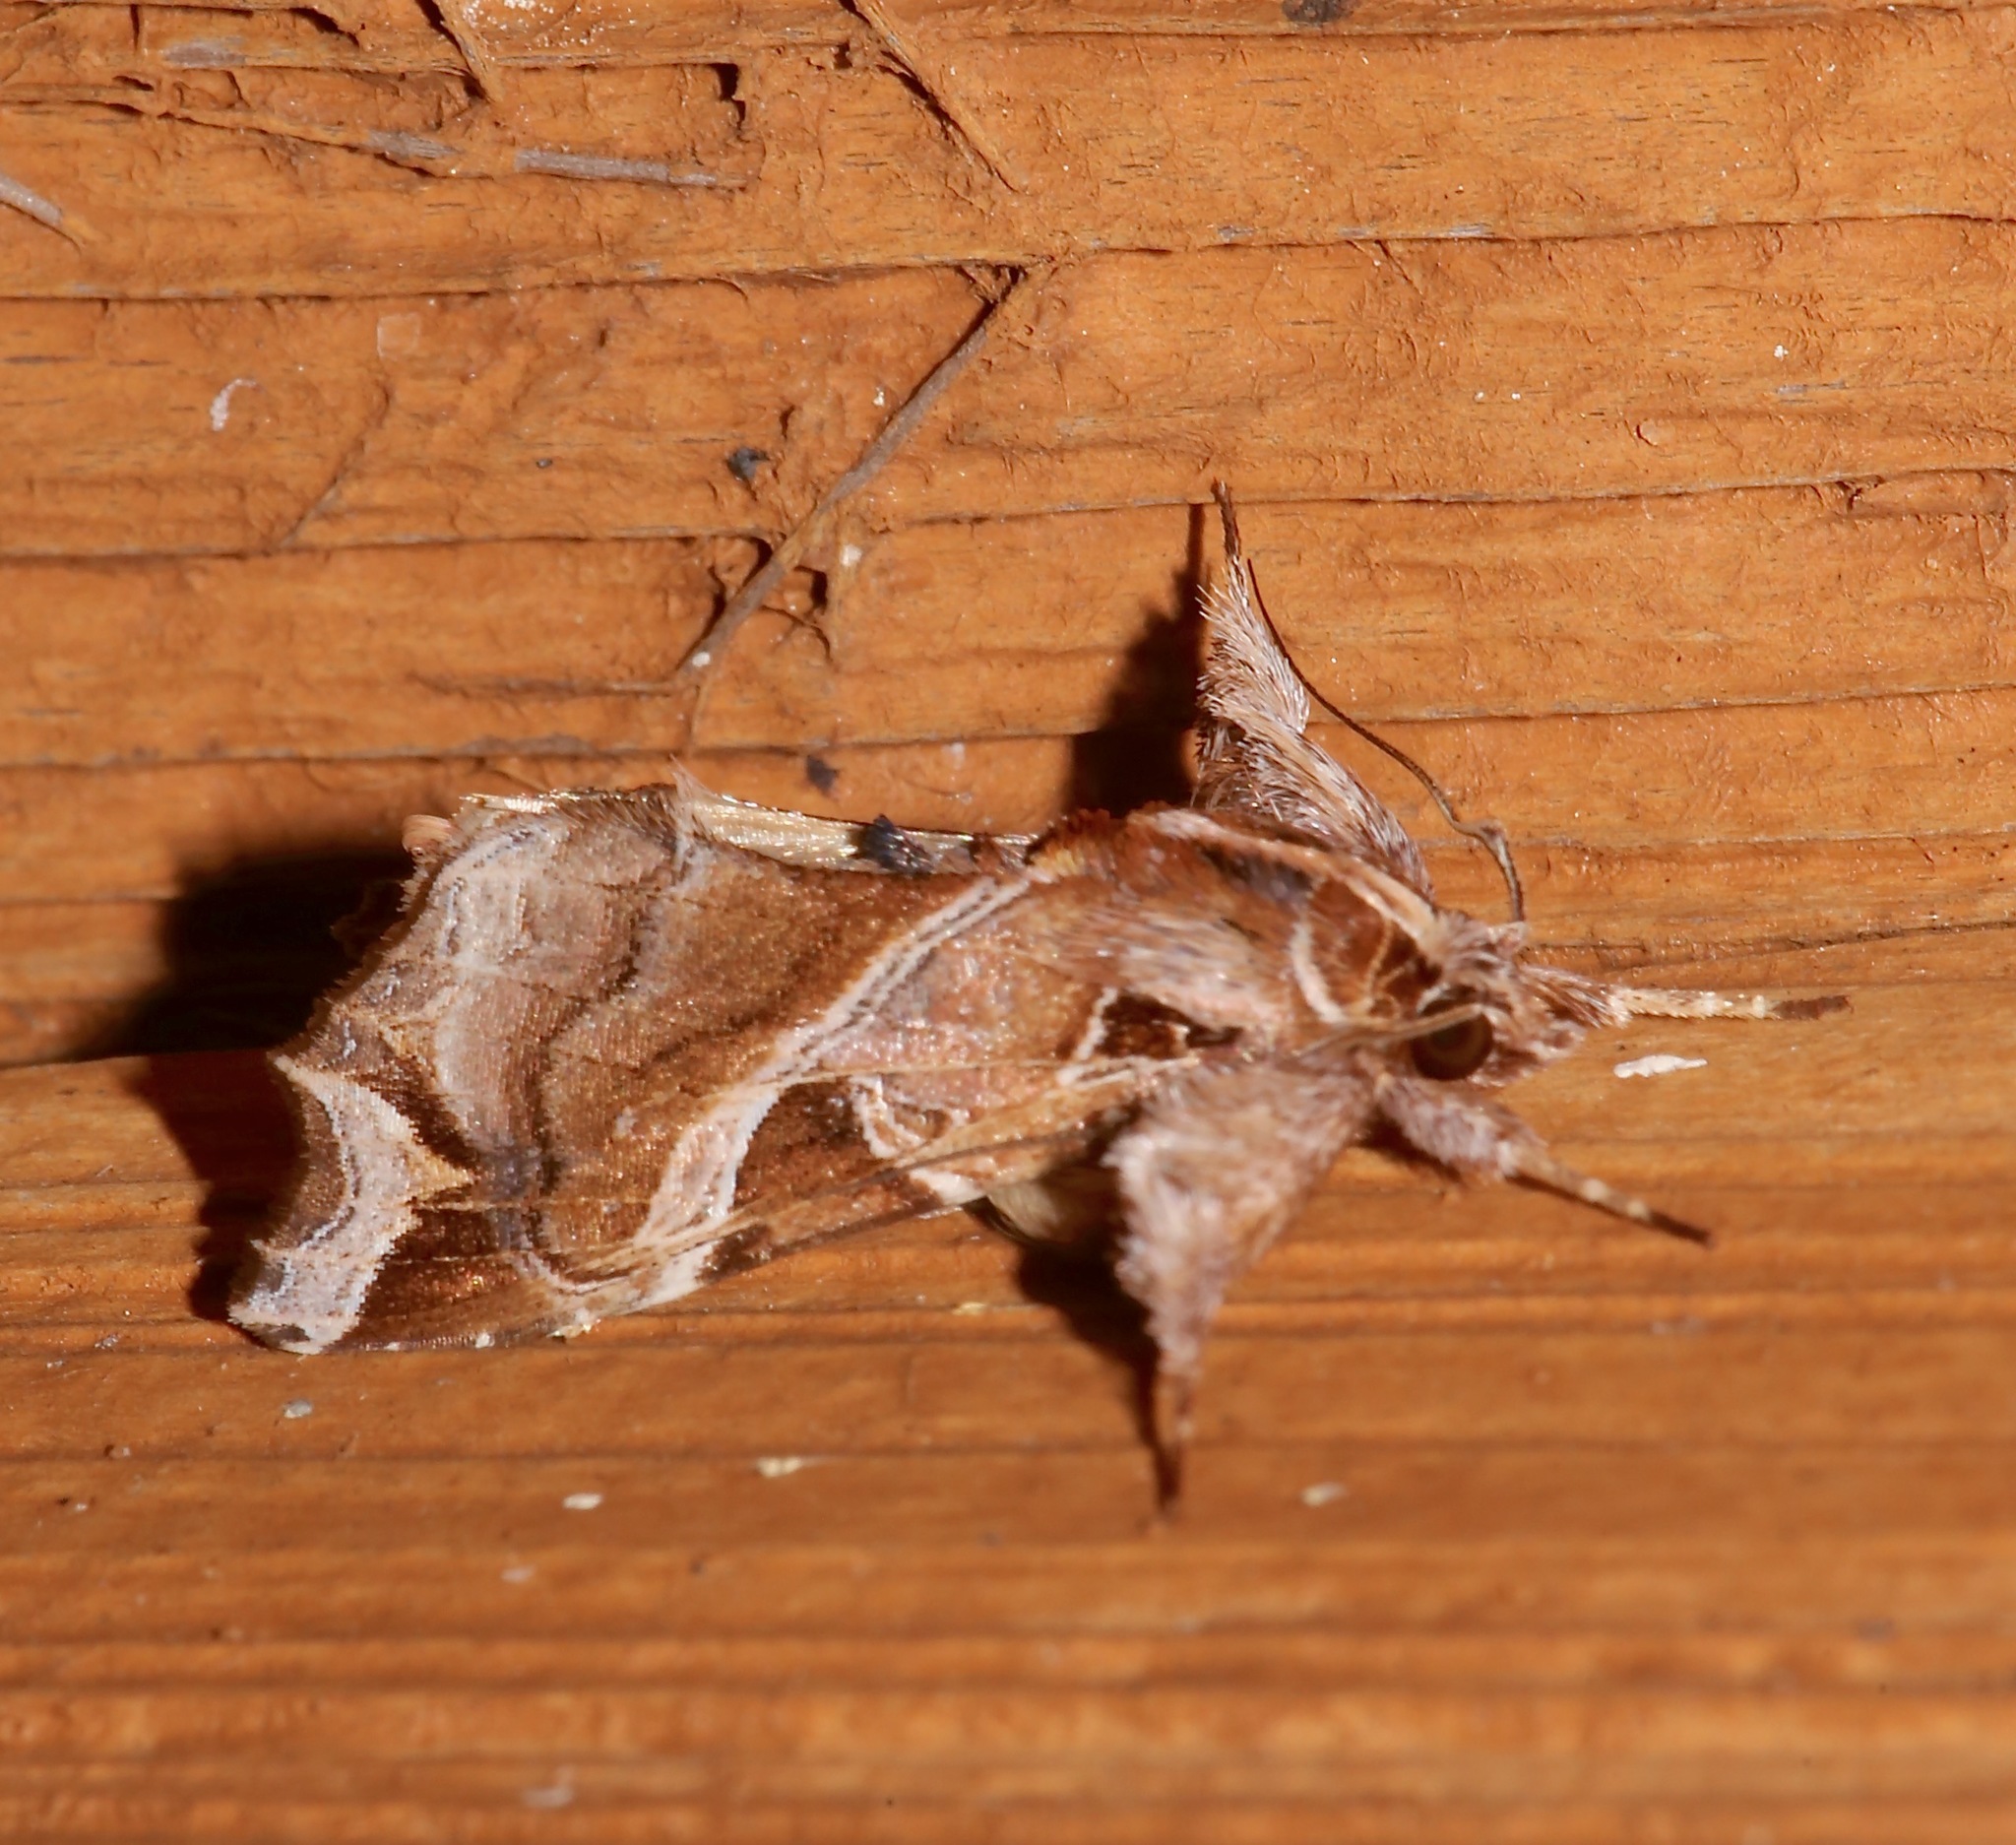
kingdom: Animalia
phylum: Arthropoda
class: Insecta
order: Lepidoptera
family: Noctuidae
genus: Callopistria
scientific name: Callopistria floridensis
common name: Florida fern moth
